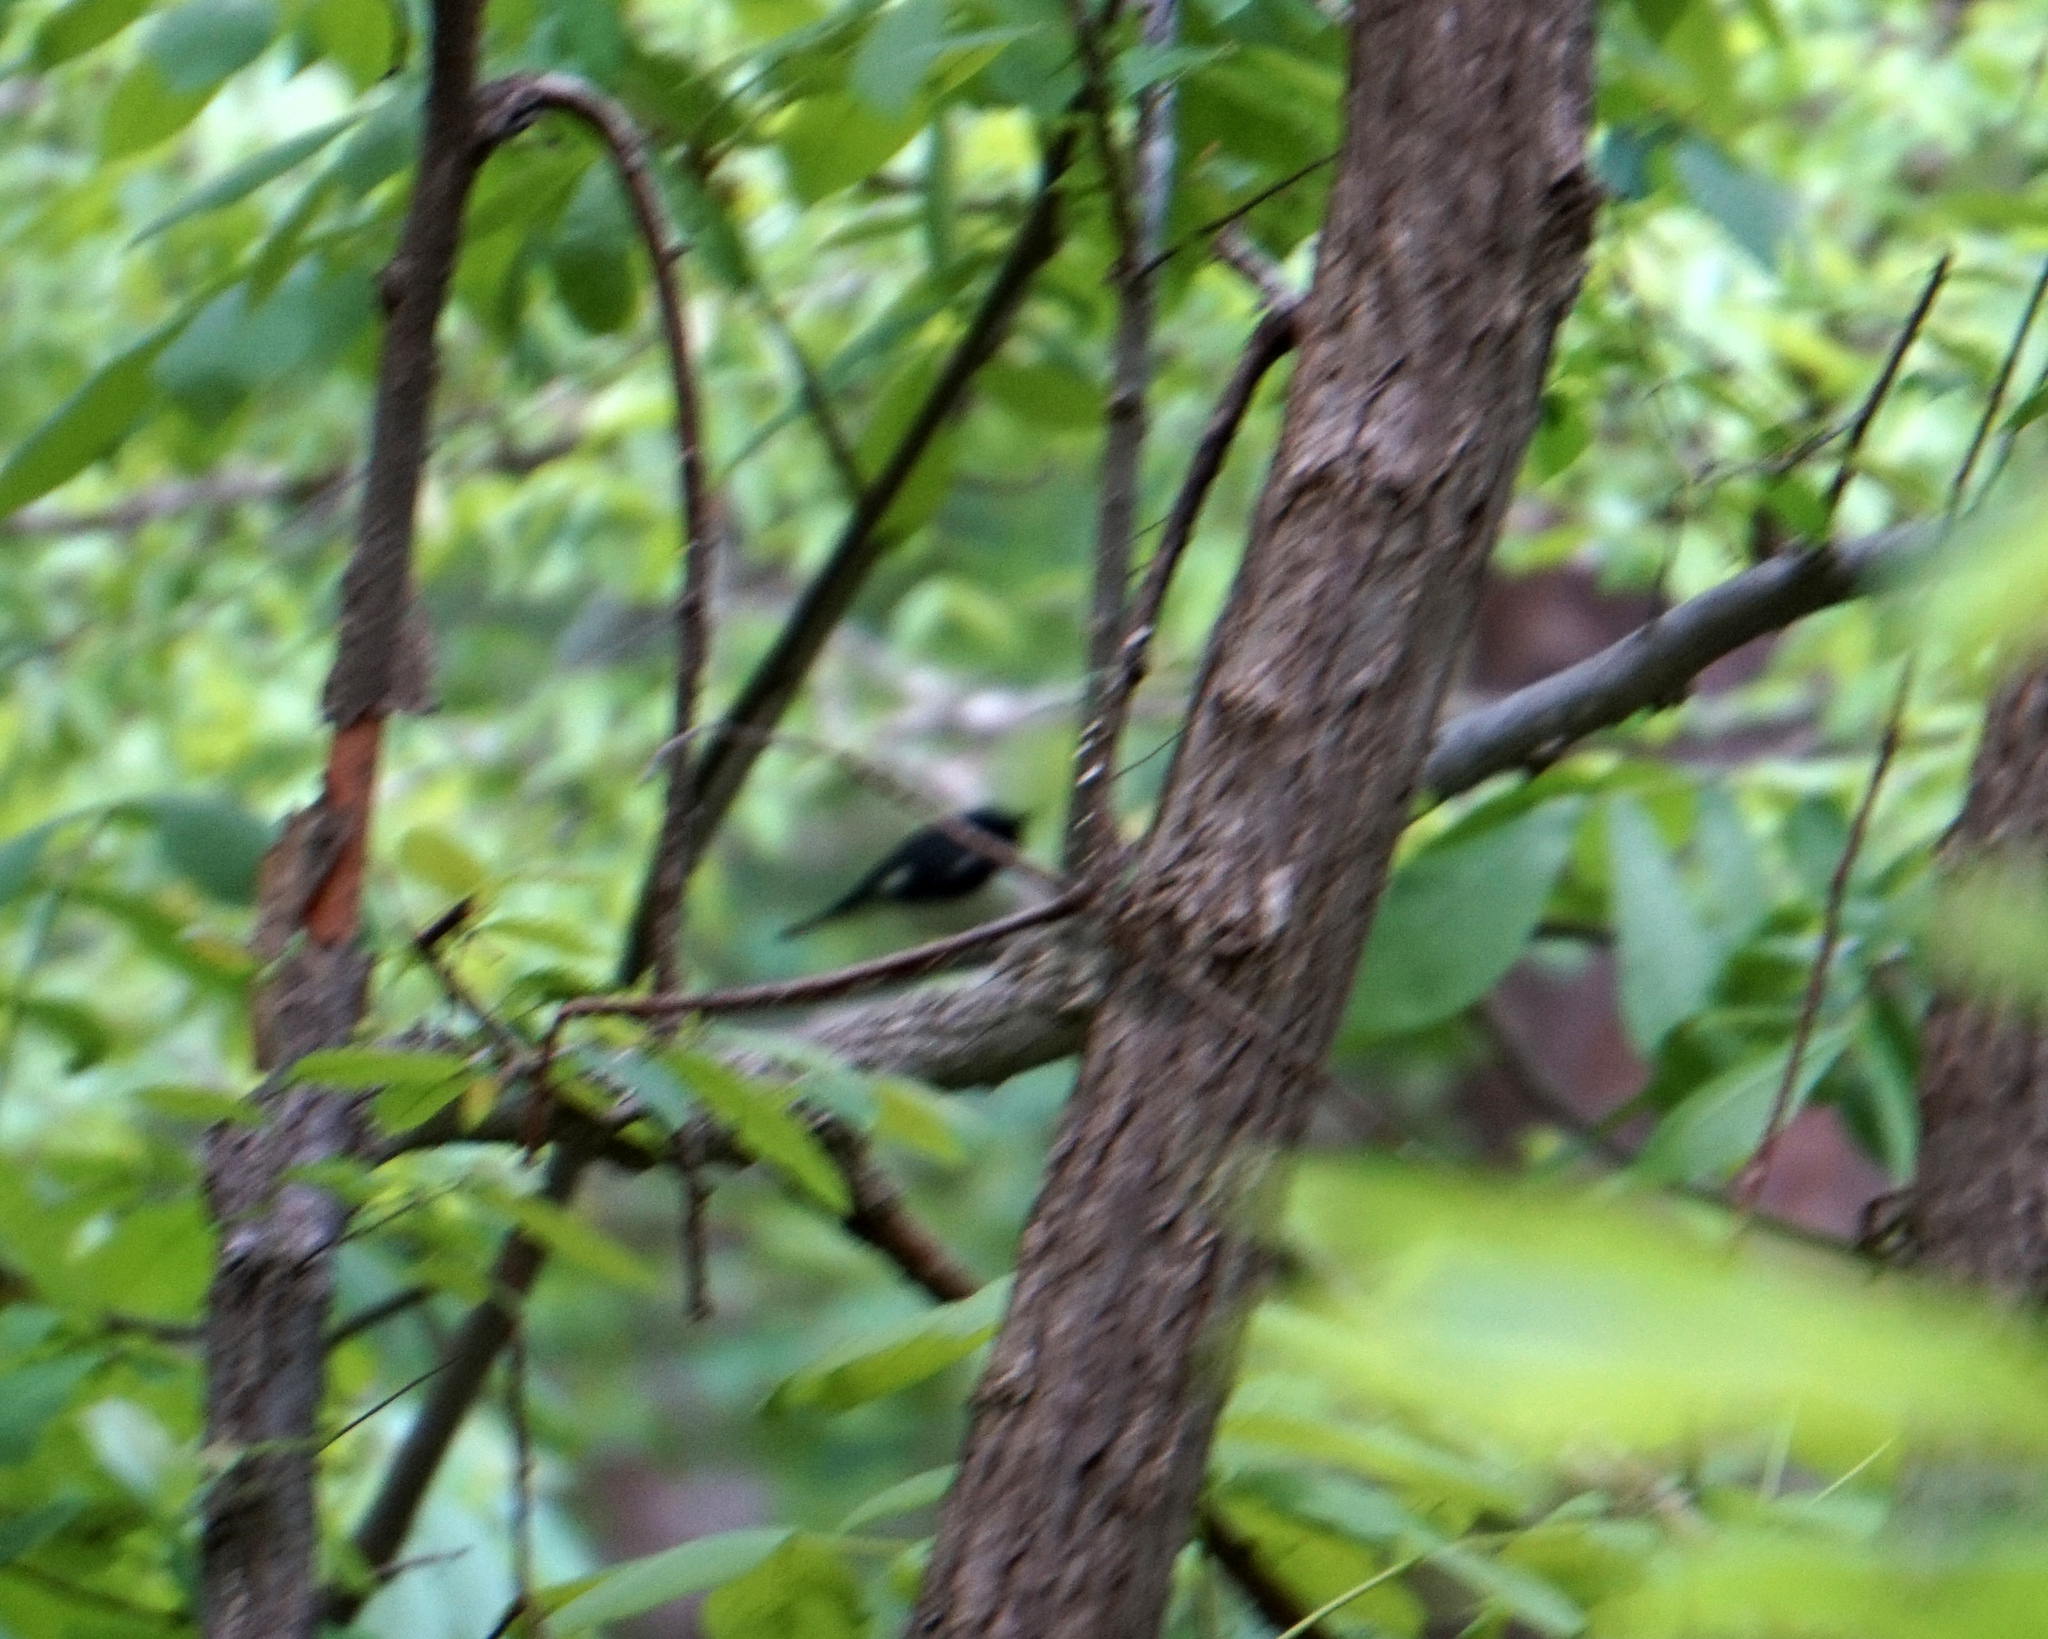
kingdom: Animalia
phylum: Chordata
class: Aves
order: Passeriformes
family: Parulidae
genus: Setophaga
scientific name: Setophaga caerulescens
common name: Black-throated blue warbler
